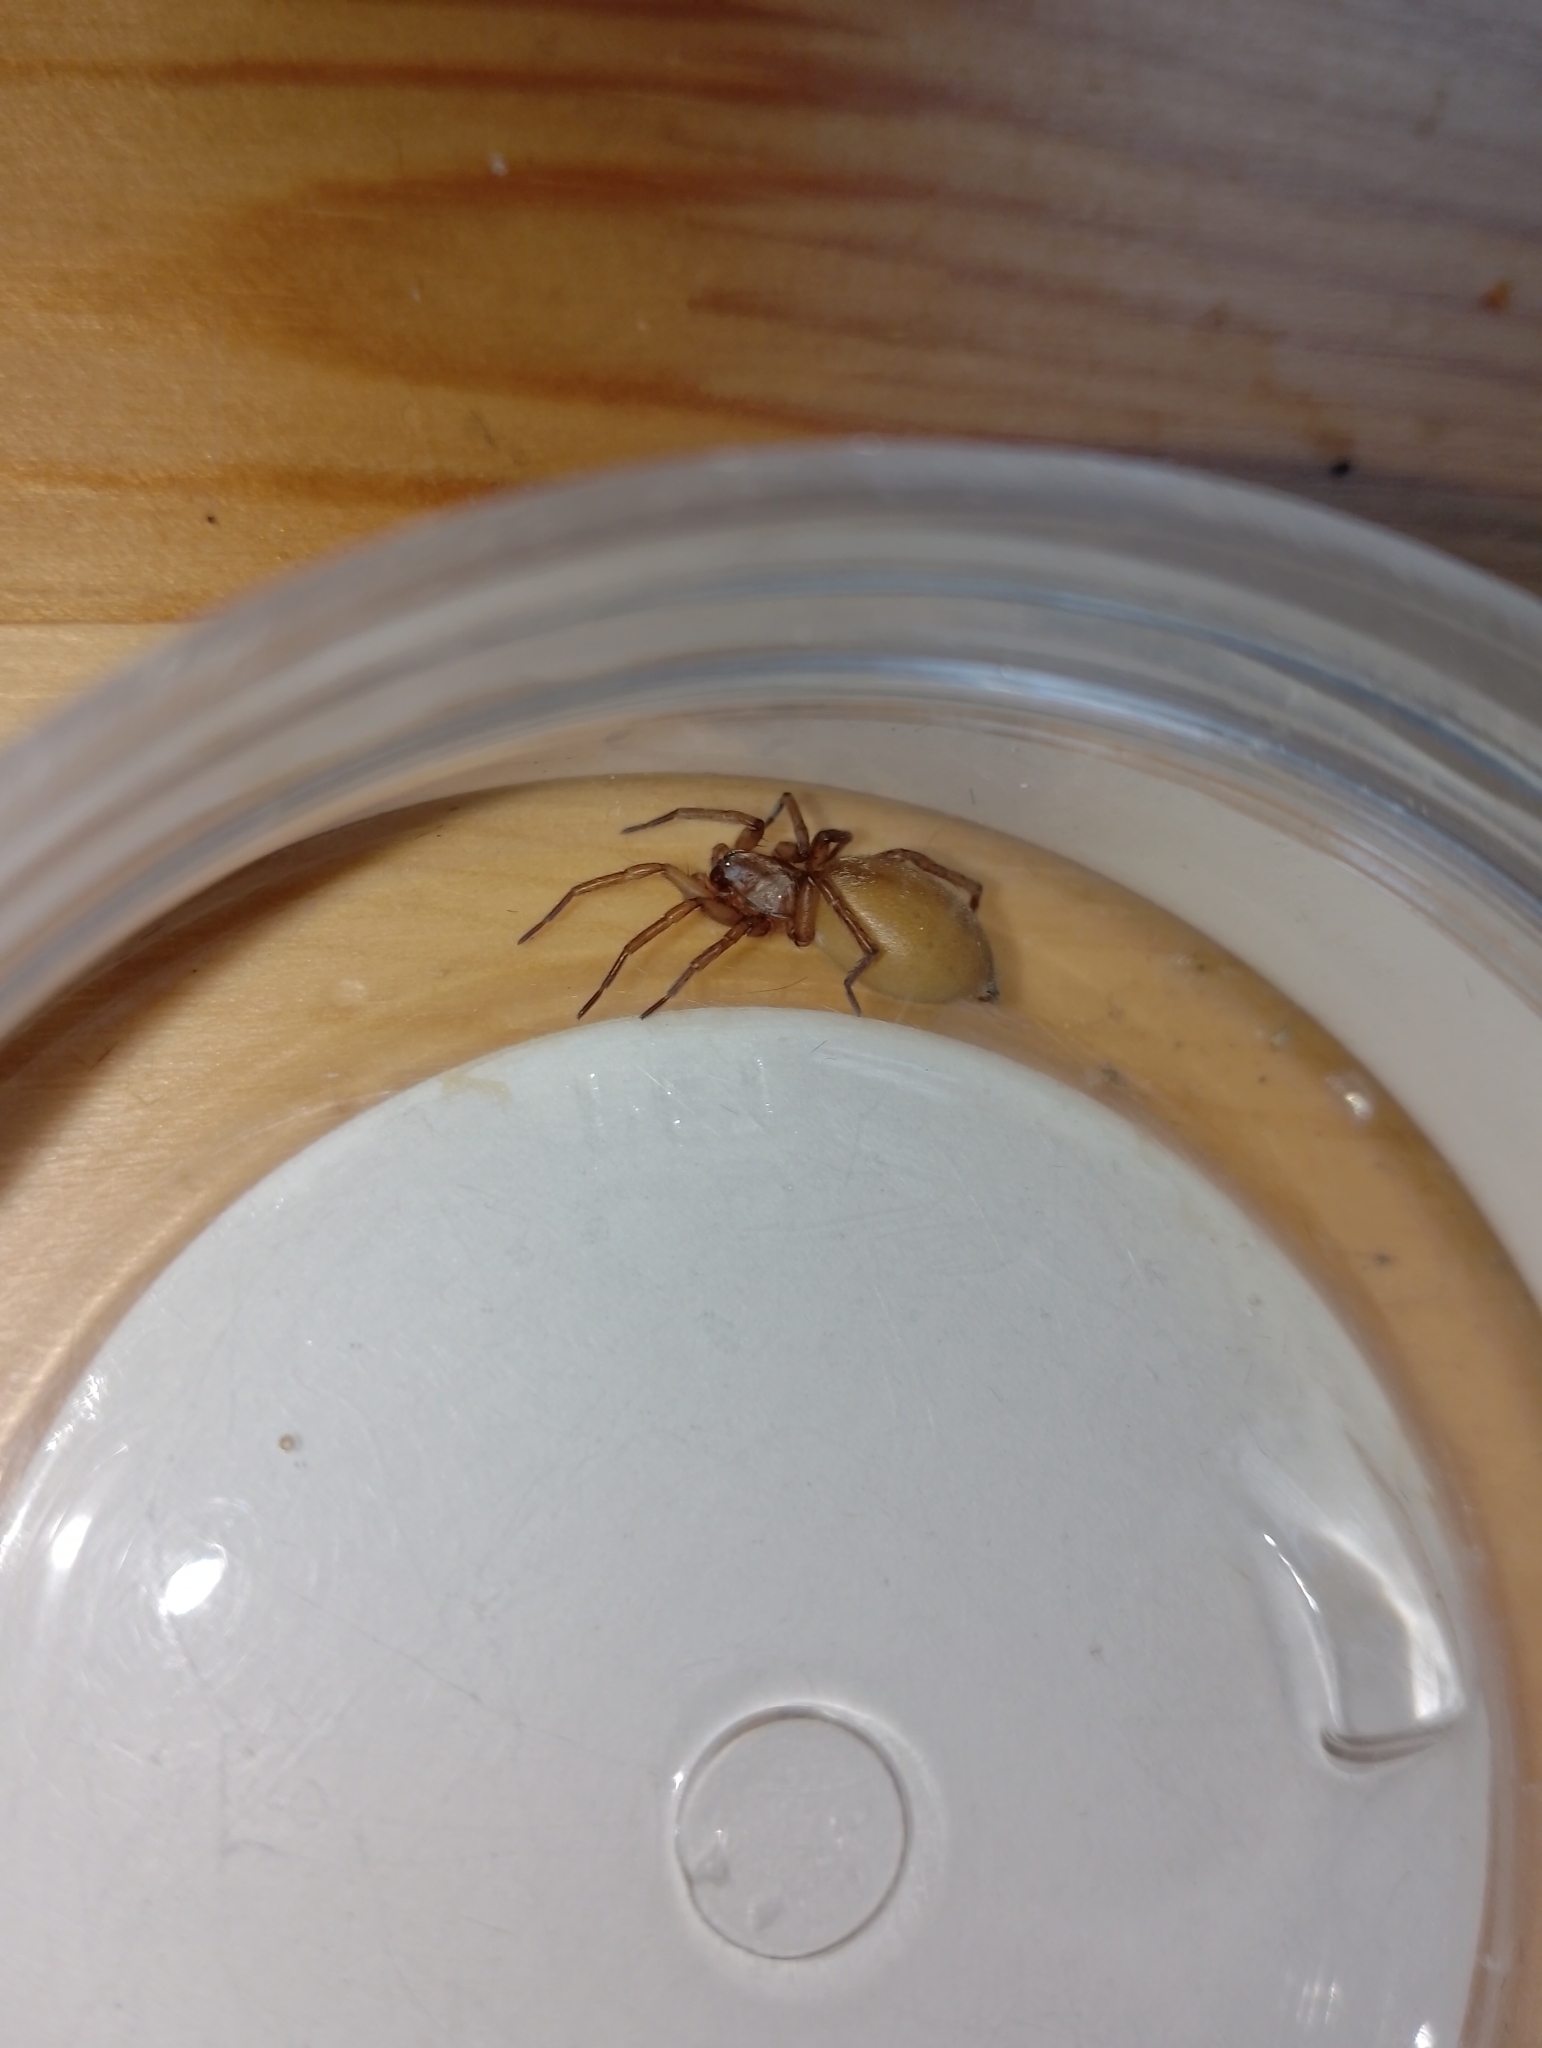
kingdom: Animalia
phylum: Arthropoda
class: Arachnida
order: Araneae
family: Gnaphosidae
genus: Drassodes
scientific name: Drassodes pubescens
